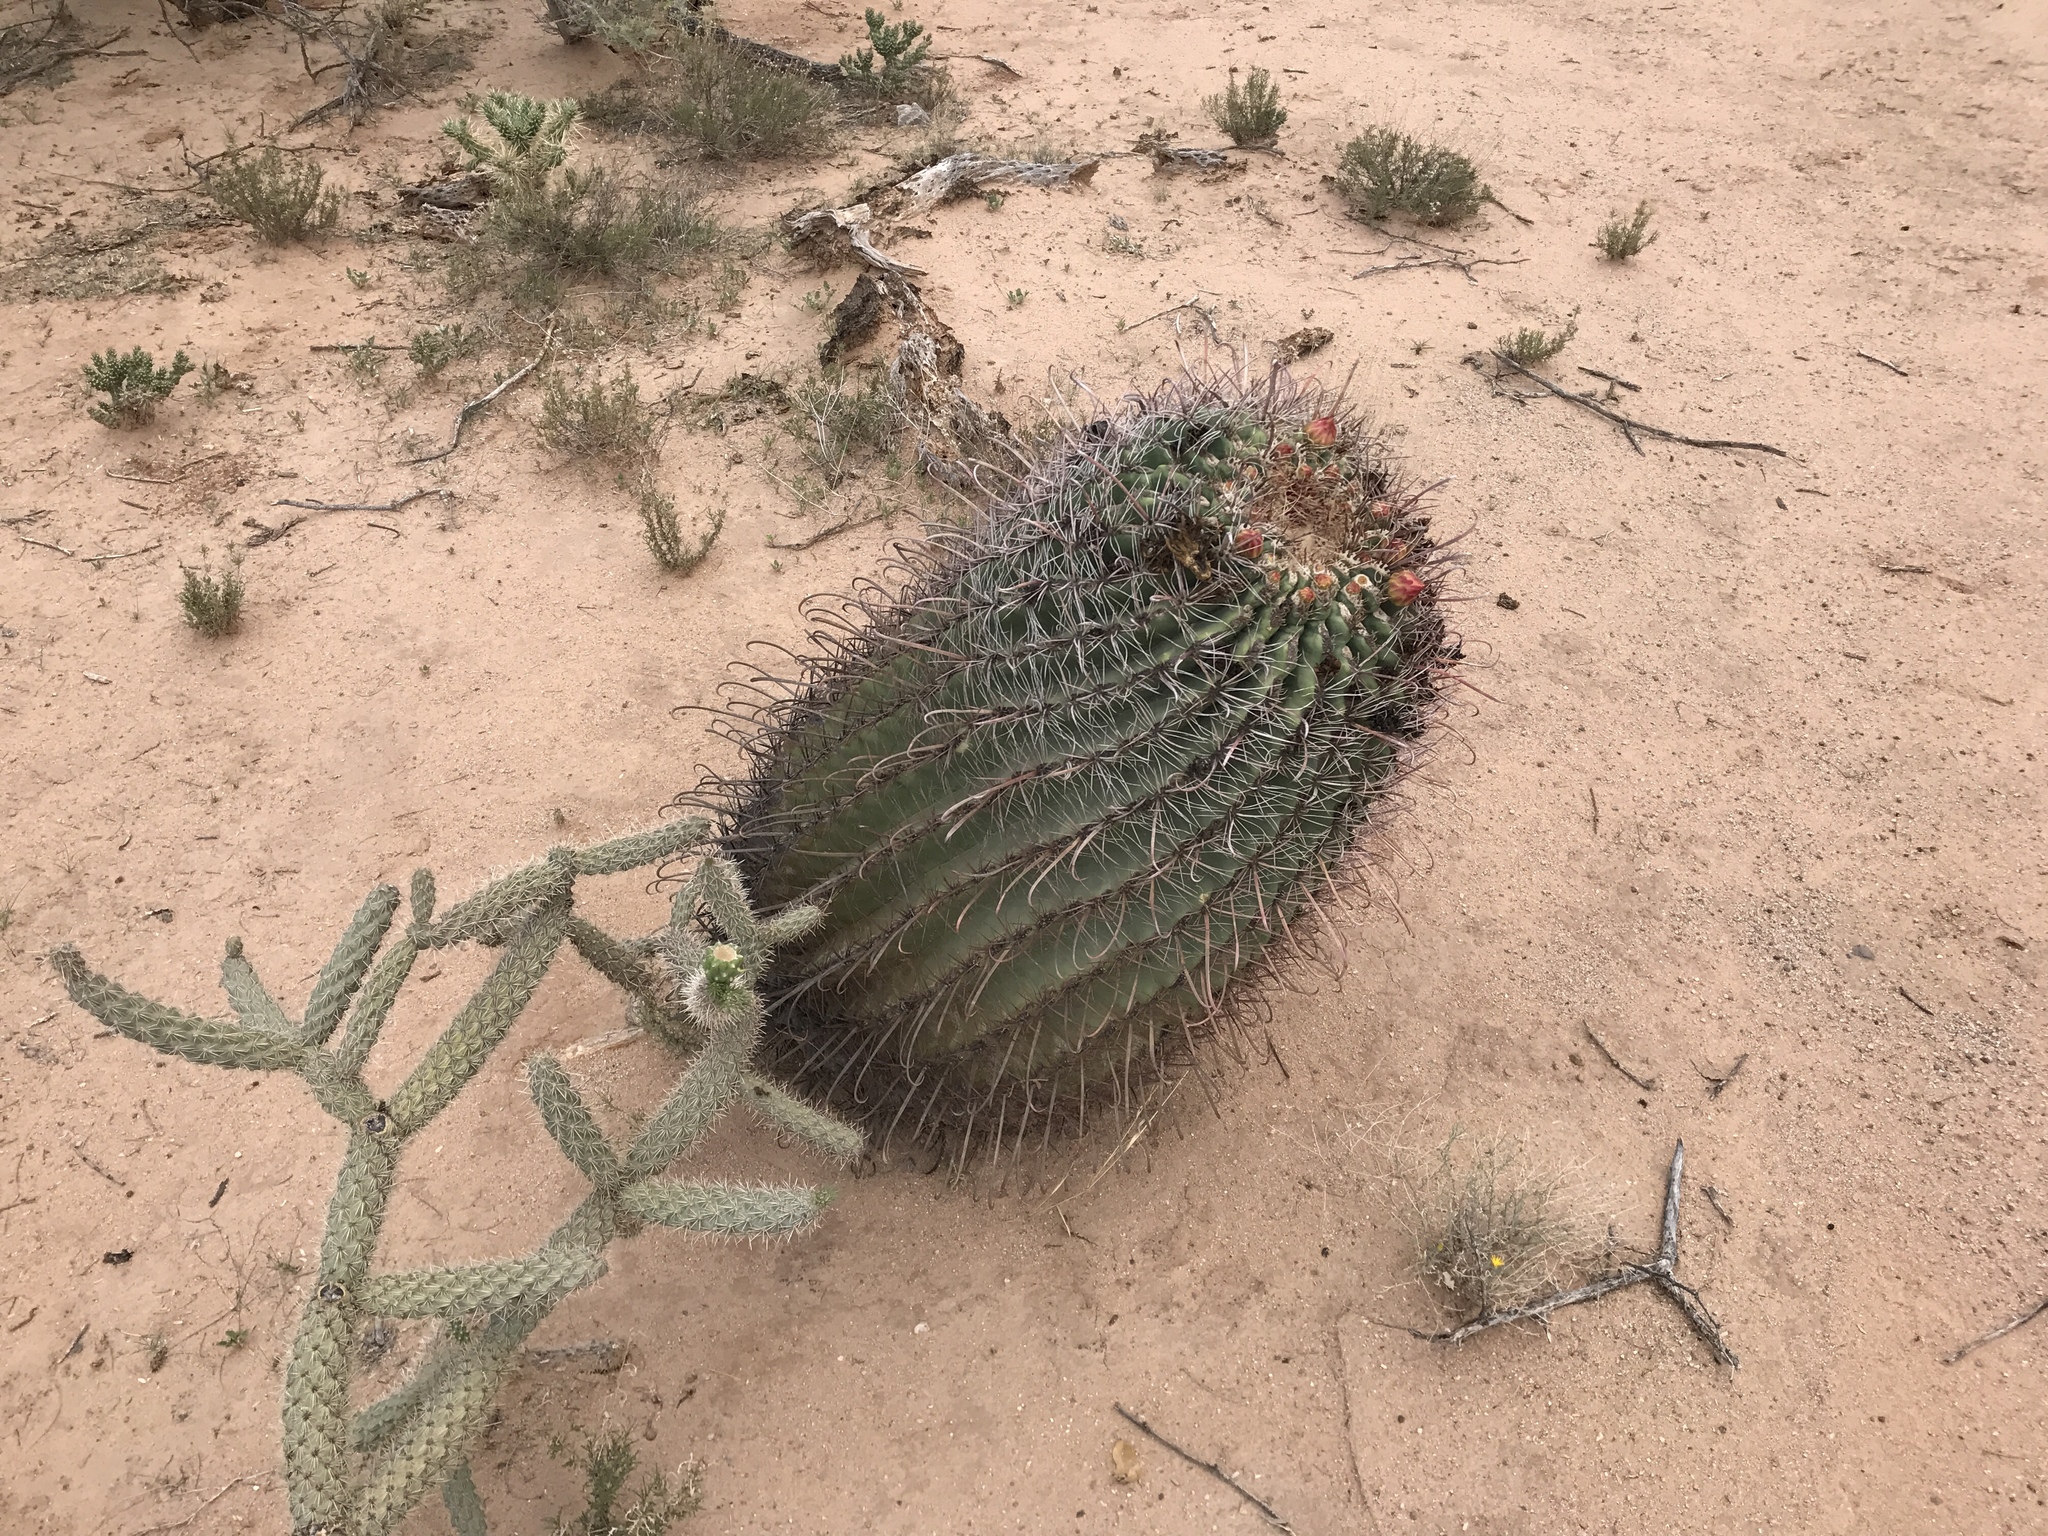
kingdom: Plantae
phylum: Tracheophyta
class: Magnoliopsida
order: Caryophyllales
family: Cactaceae
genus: Ferocactus
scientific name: Ferocactus wislizeni
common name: Candy barrel cactus
